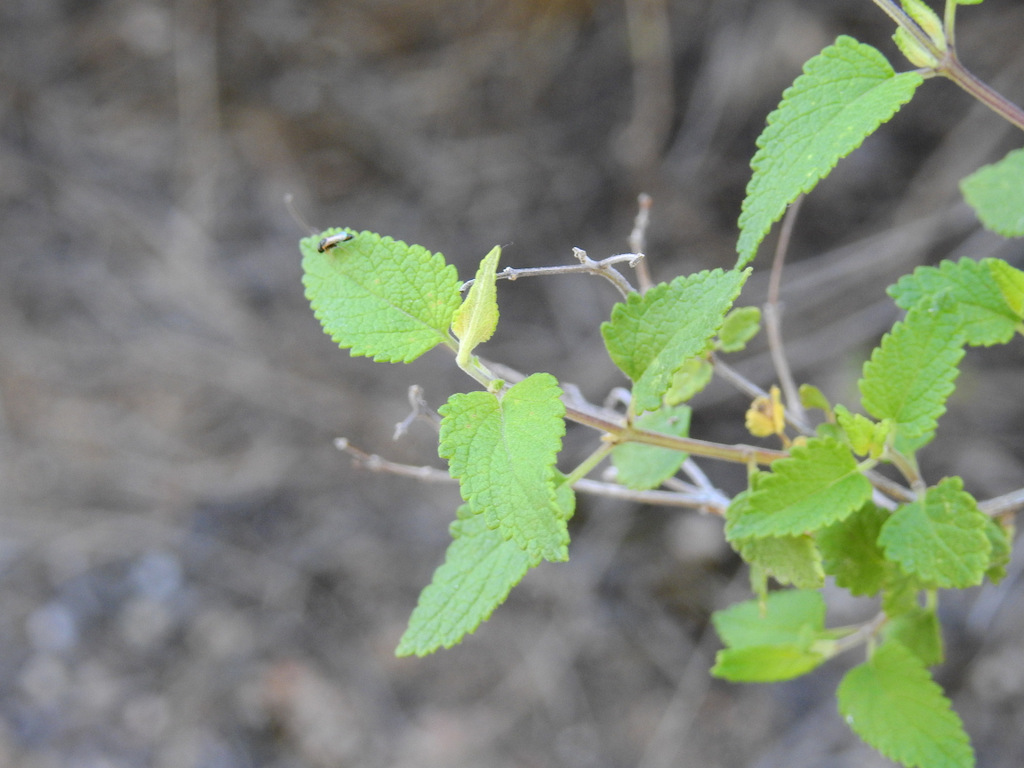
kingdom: Plantae
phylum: Tracheophyta
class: Magnoliopsida
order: Lamiales
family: Lamiaceae
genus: Salvia
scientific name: Salvia cuspidata
